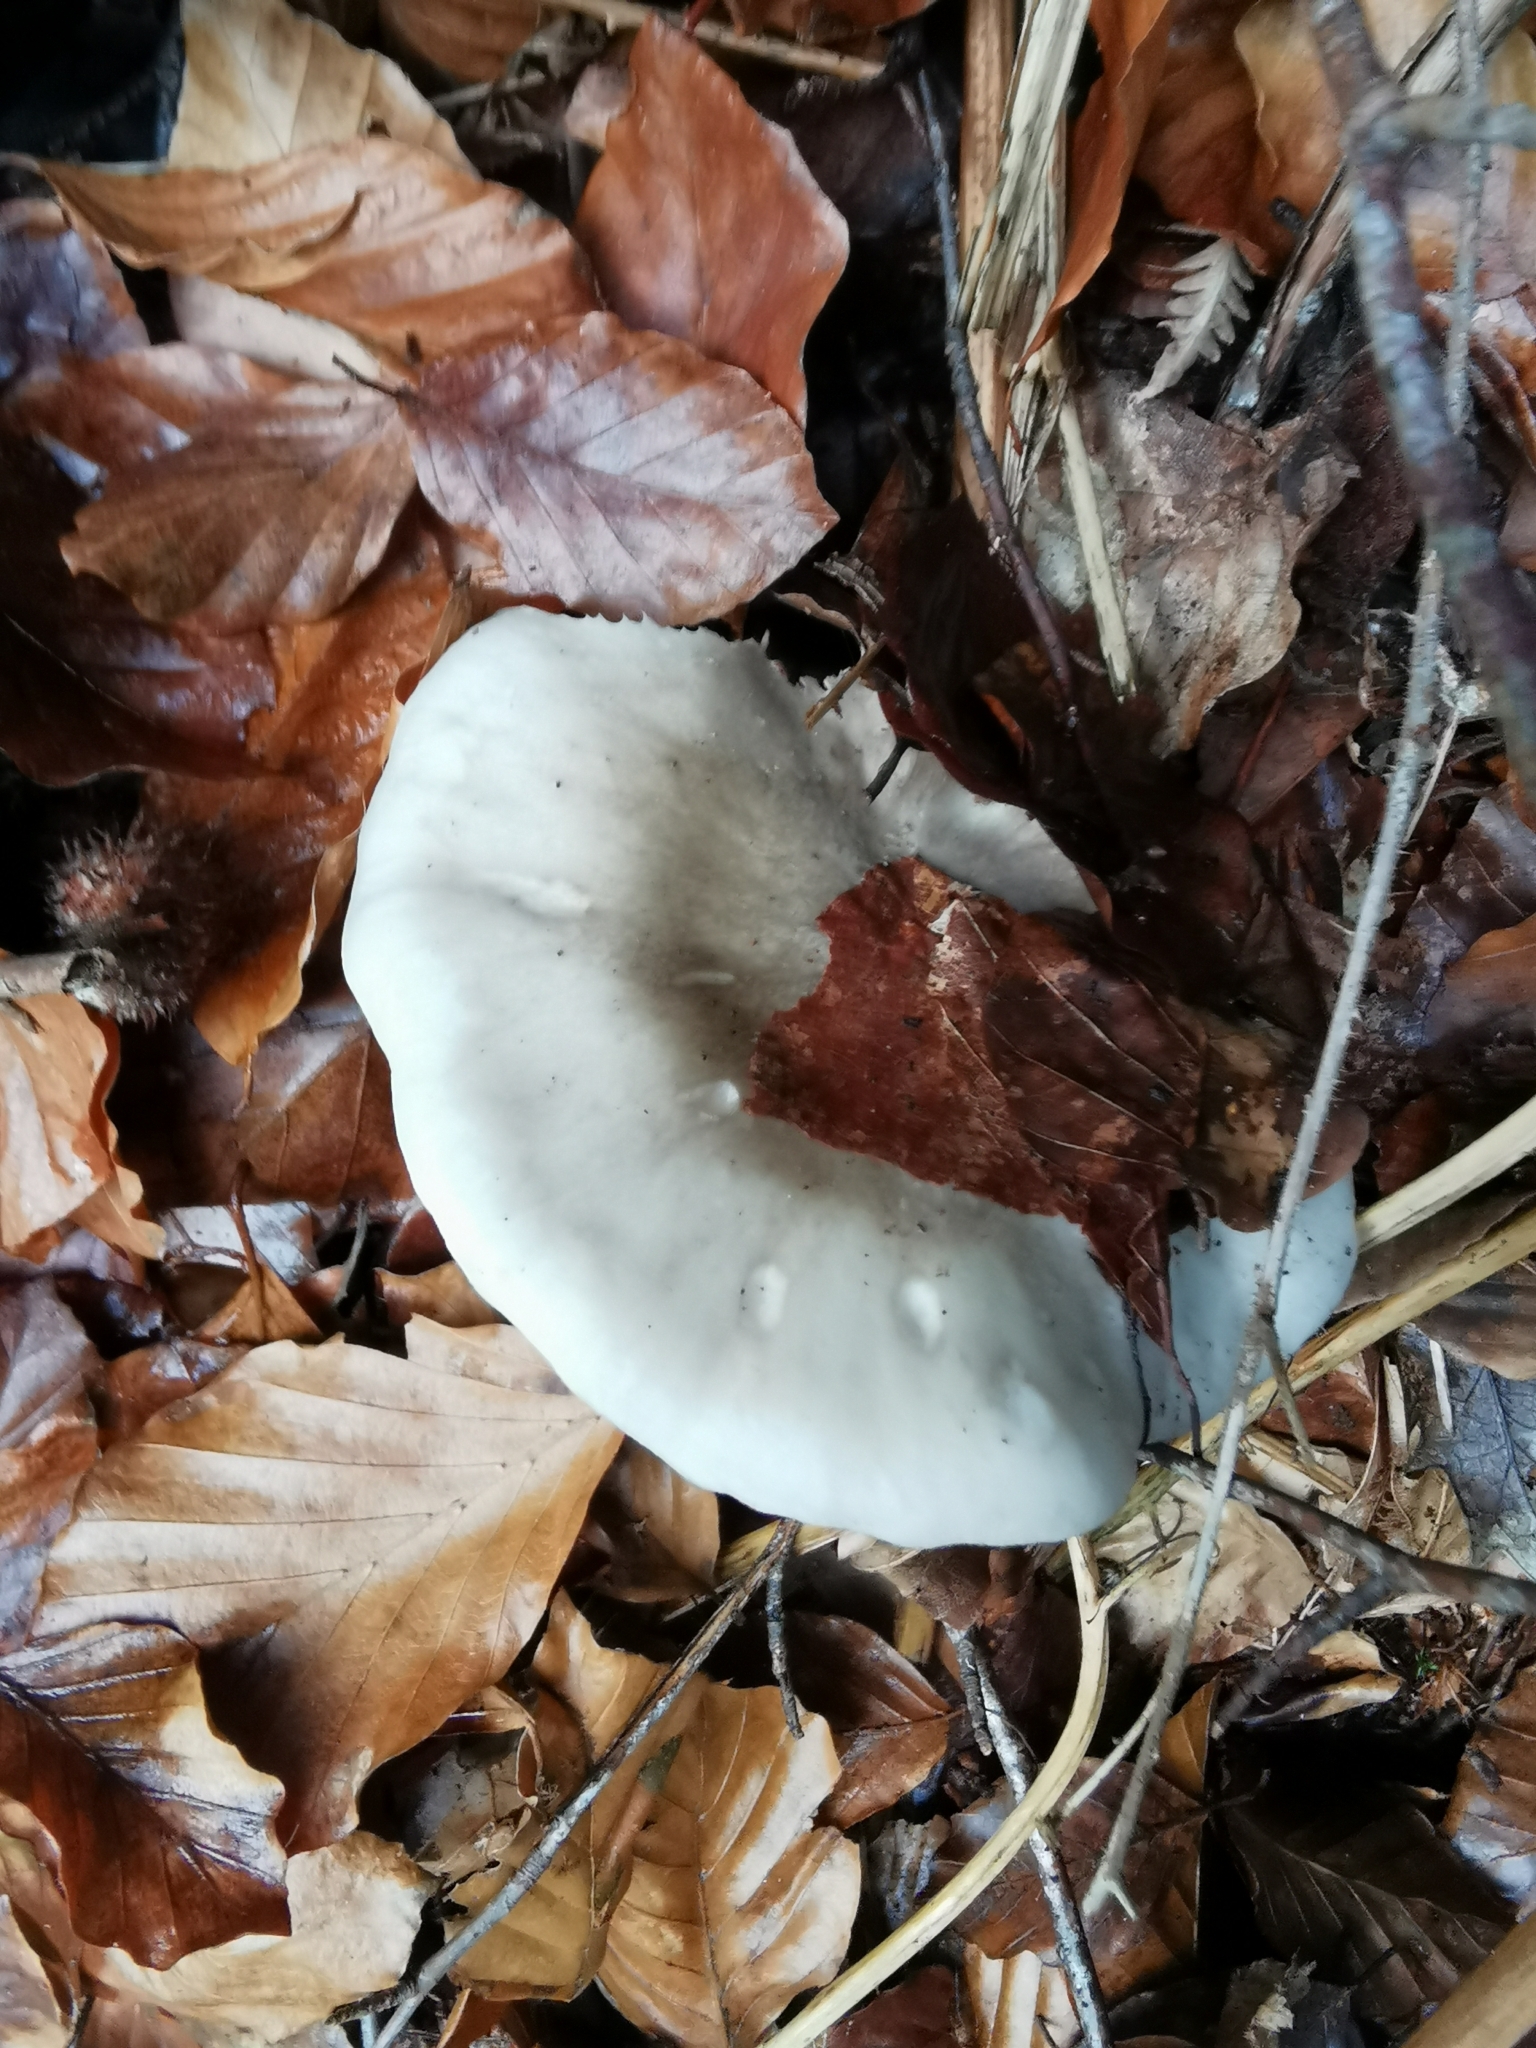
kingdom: Fungi
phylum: Basidiomycota
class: Agaricomycetes
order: Agaricales
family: Tricholomataceae
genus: Clitocybe
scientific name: Clitocybe nebularis
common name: Clouded agaric
